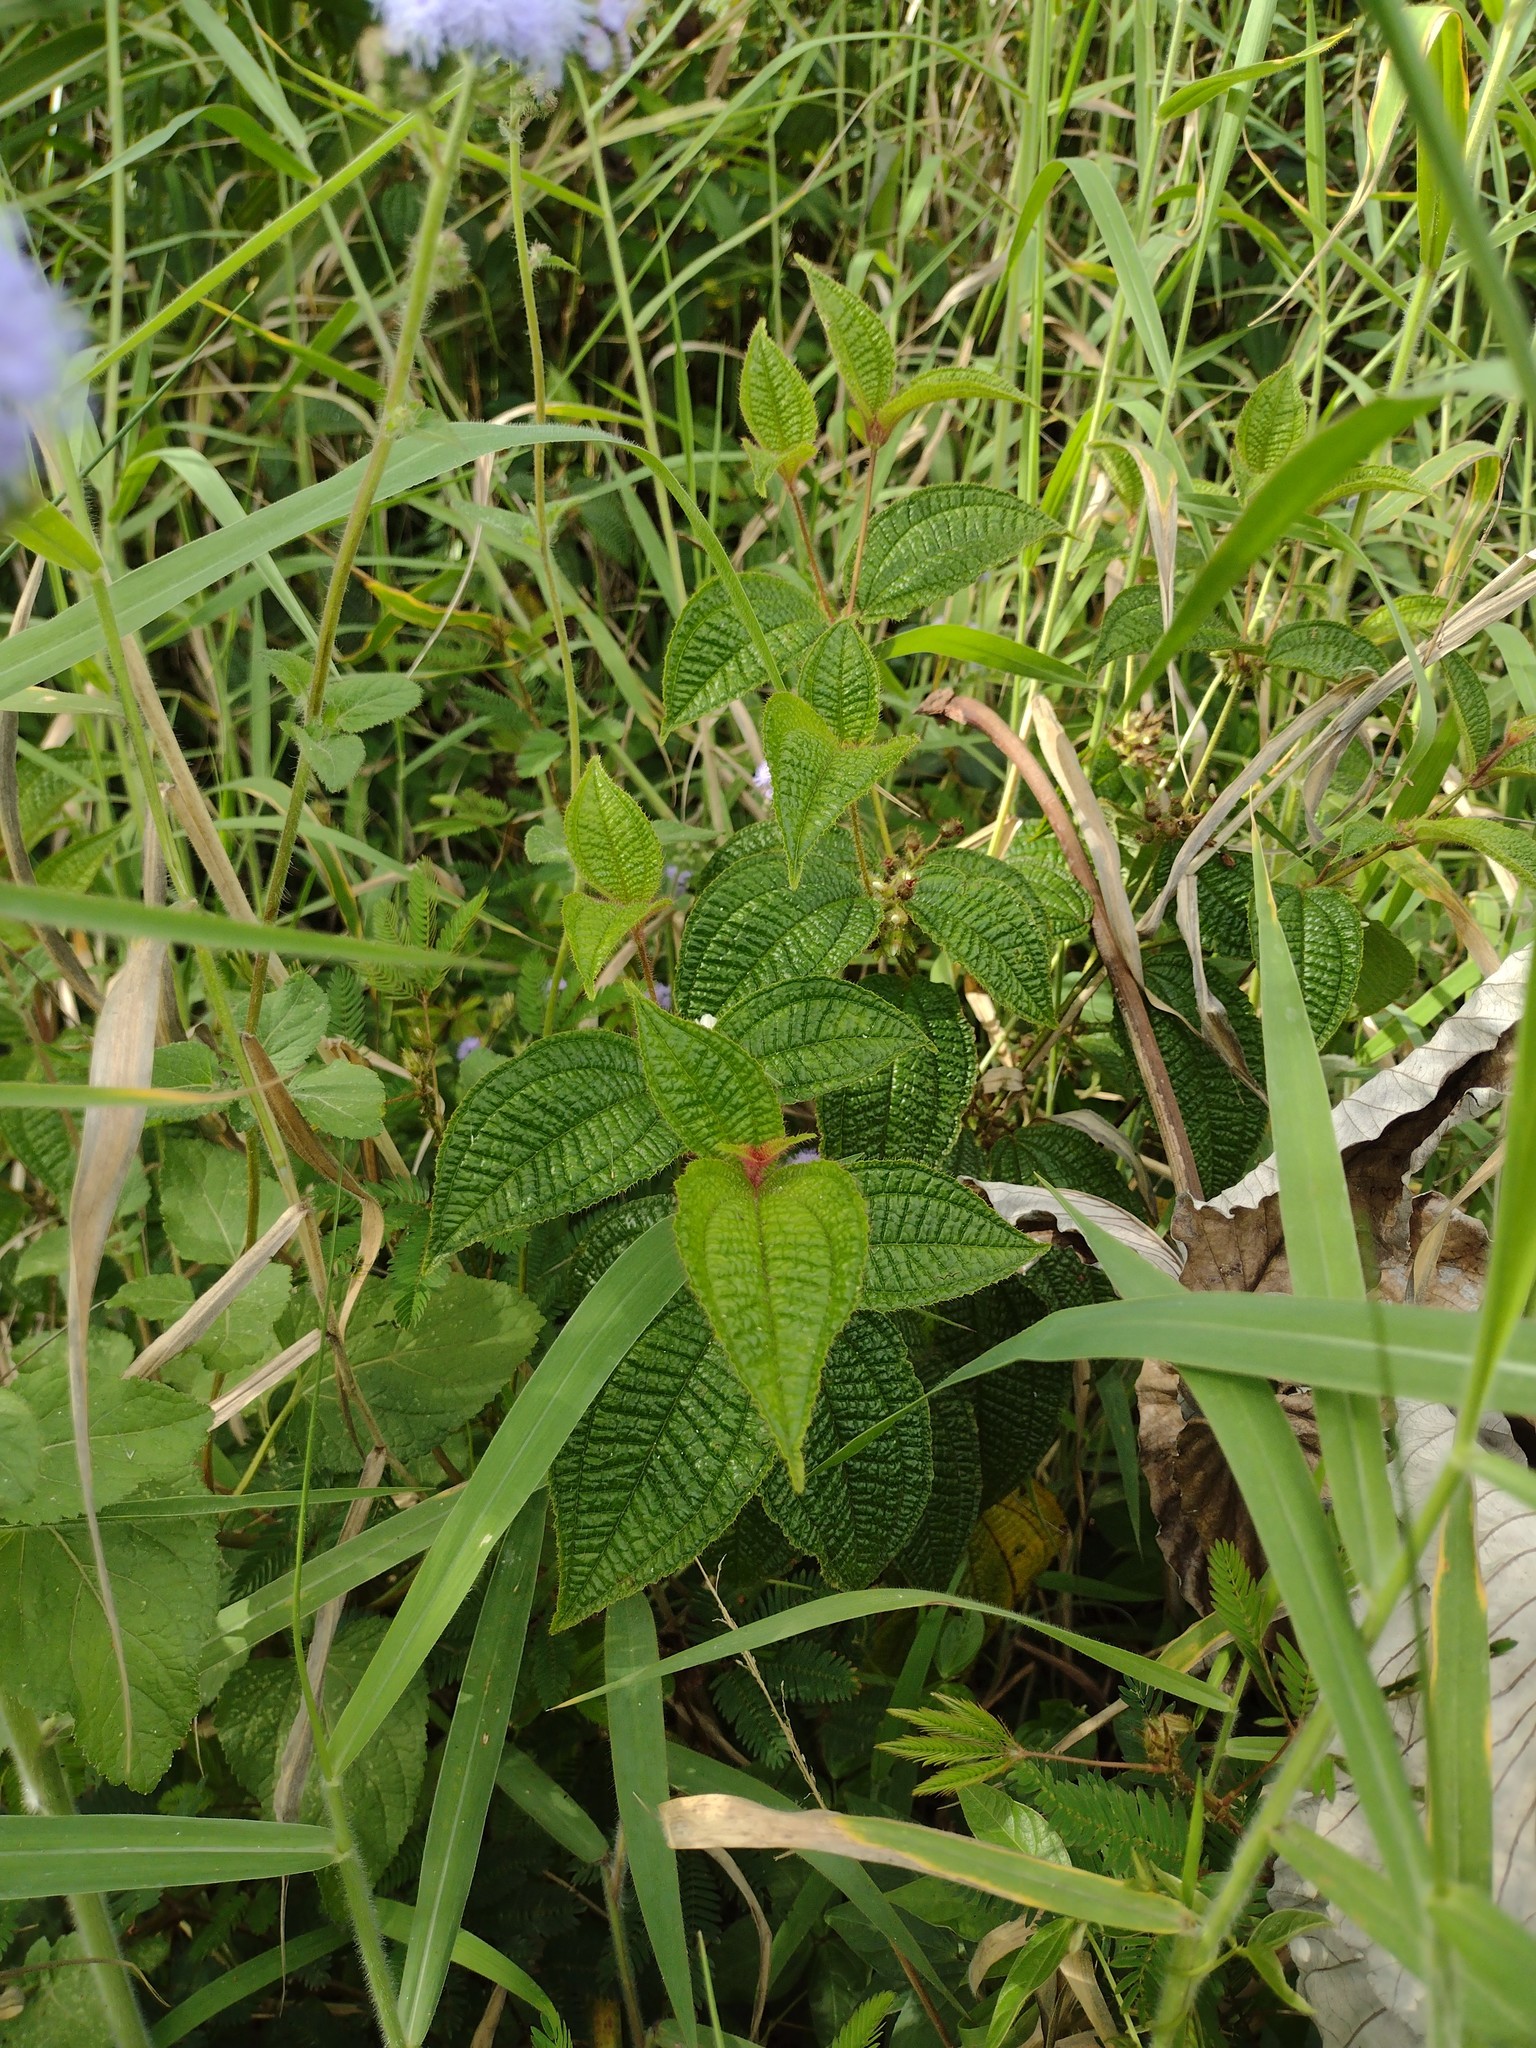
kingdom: Plantae
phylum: Tracheophyta
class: Magnoliopsida
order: Myrtales
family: Melastomataceae
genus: Miconia
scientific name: Miconia crenata
